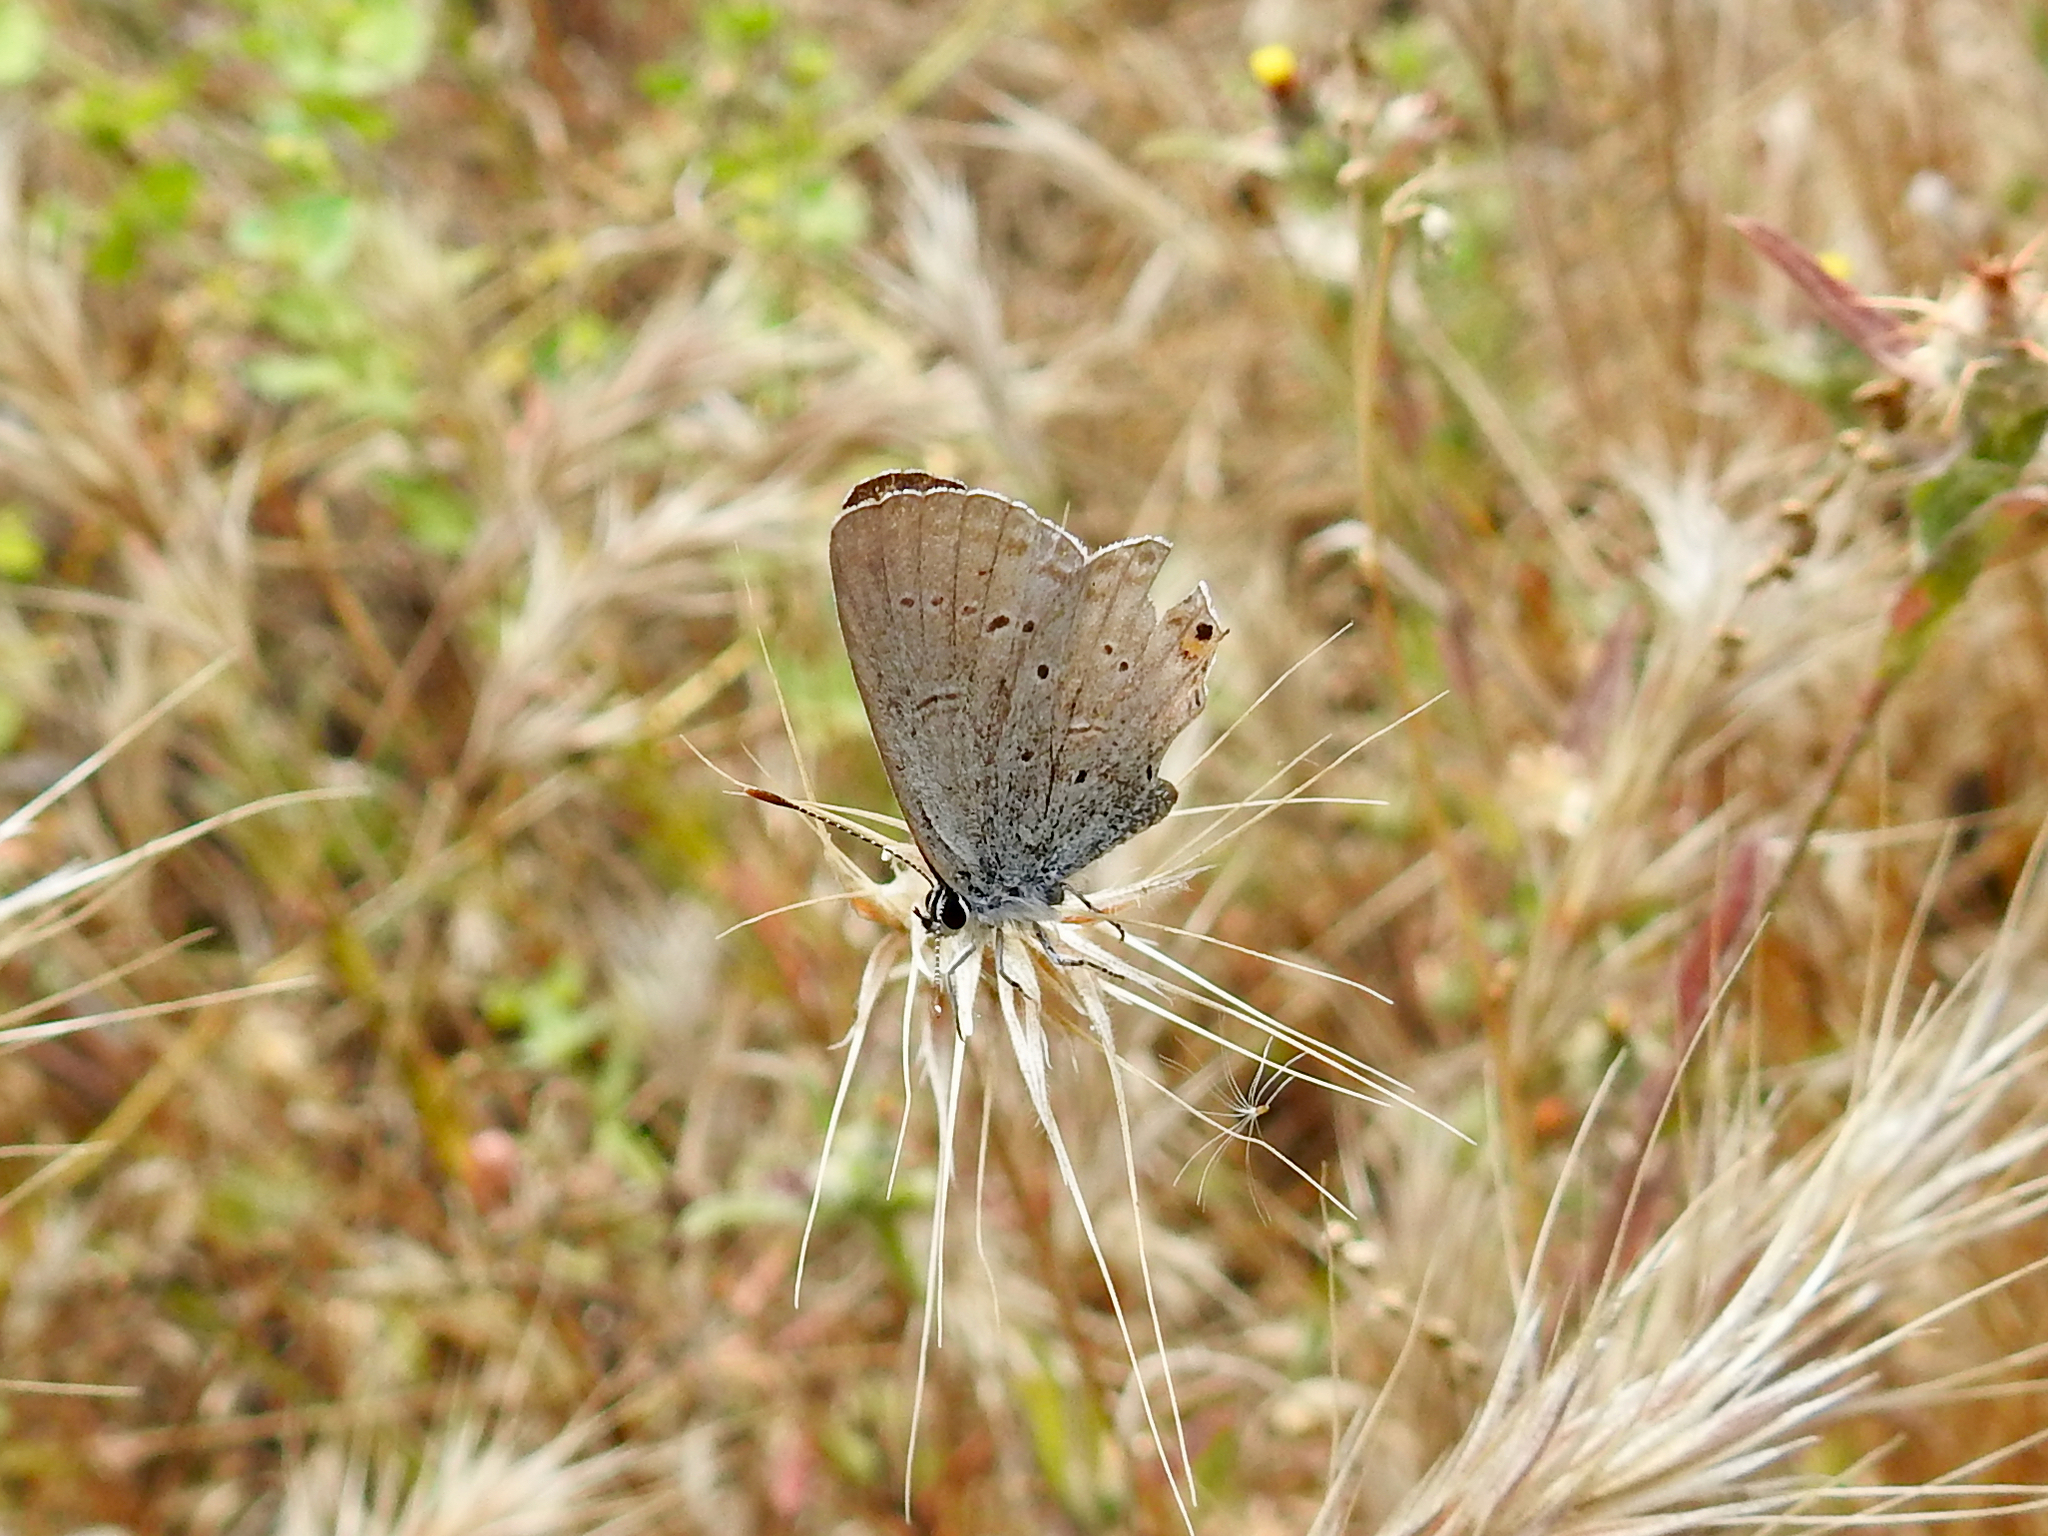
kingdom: Animalia
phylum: Arthropoda
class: Insecta
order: Lepidoptera
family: Lycaenidae
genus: Elkalyce
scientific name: Elkalyce amyntula
